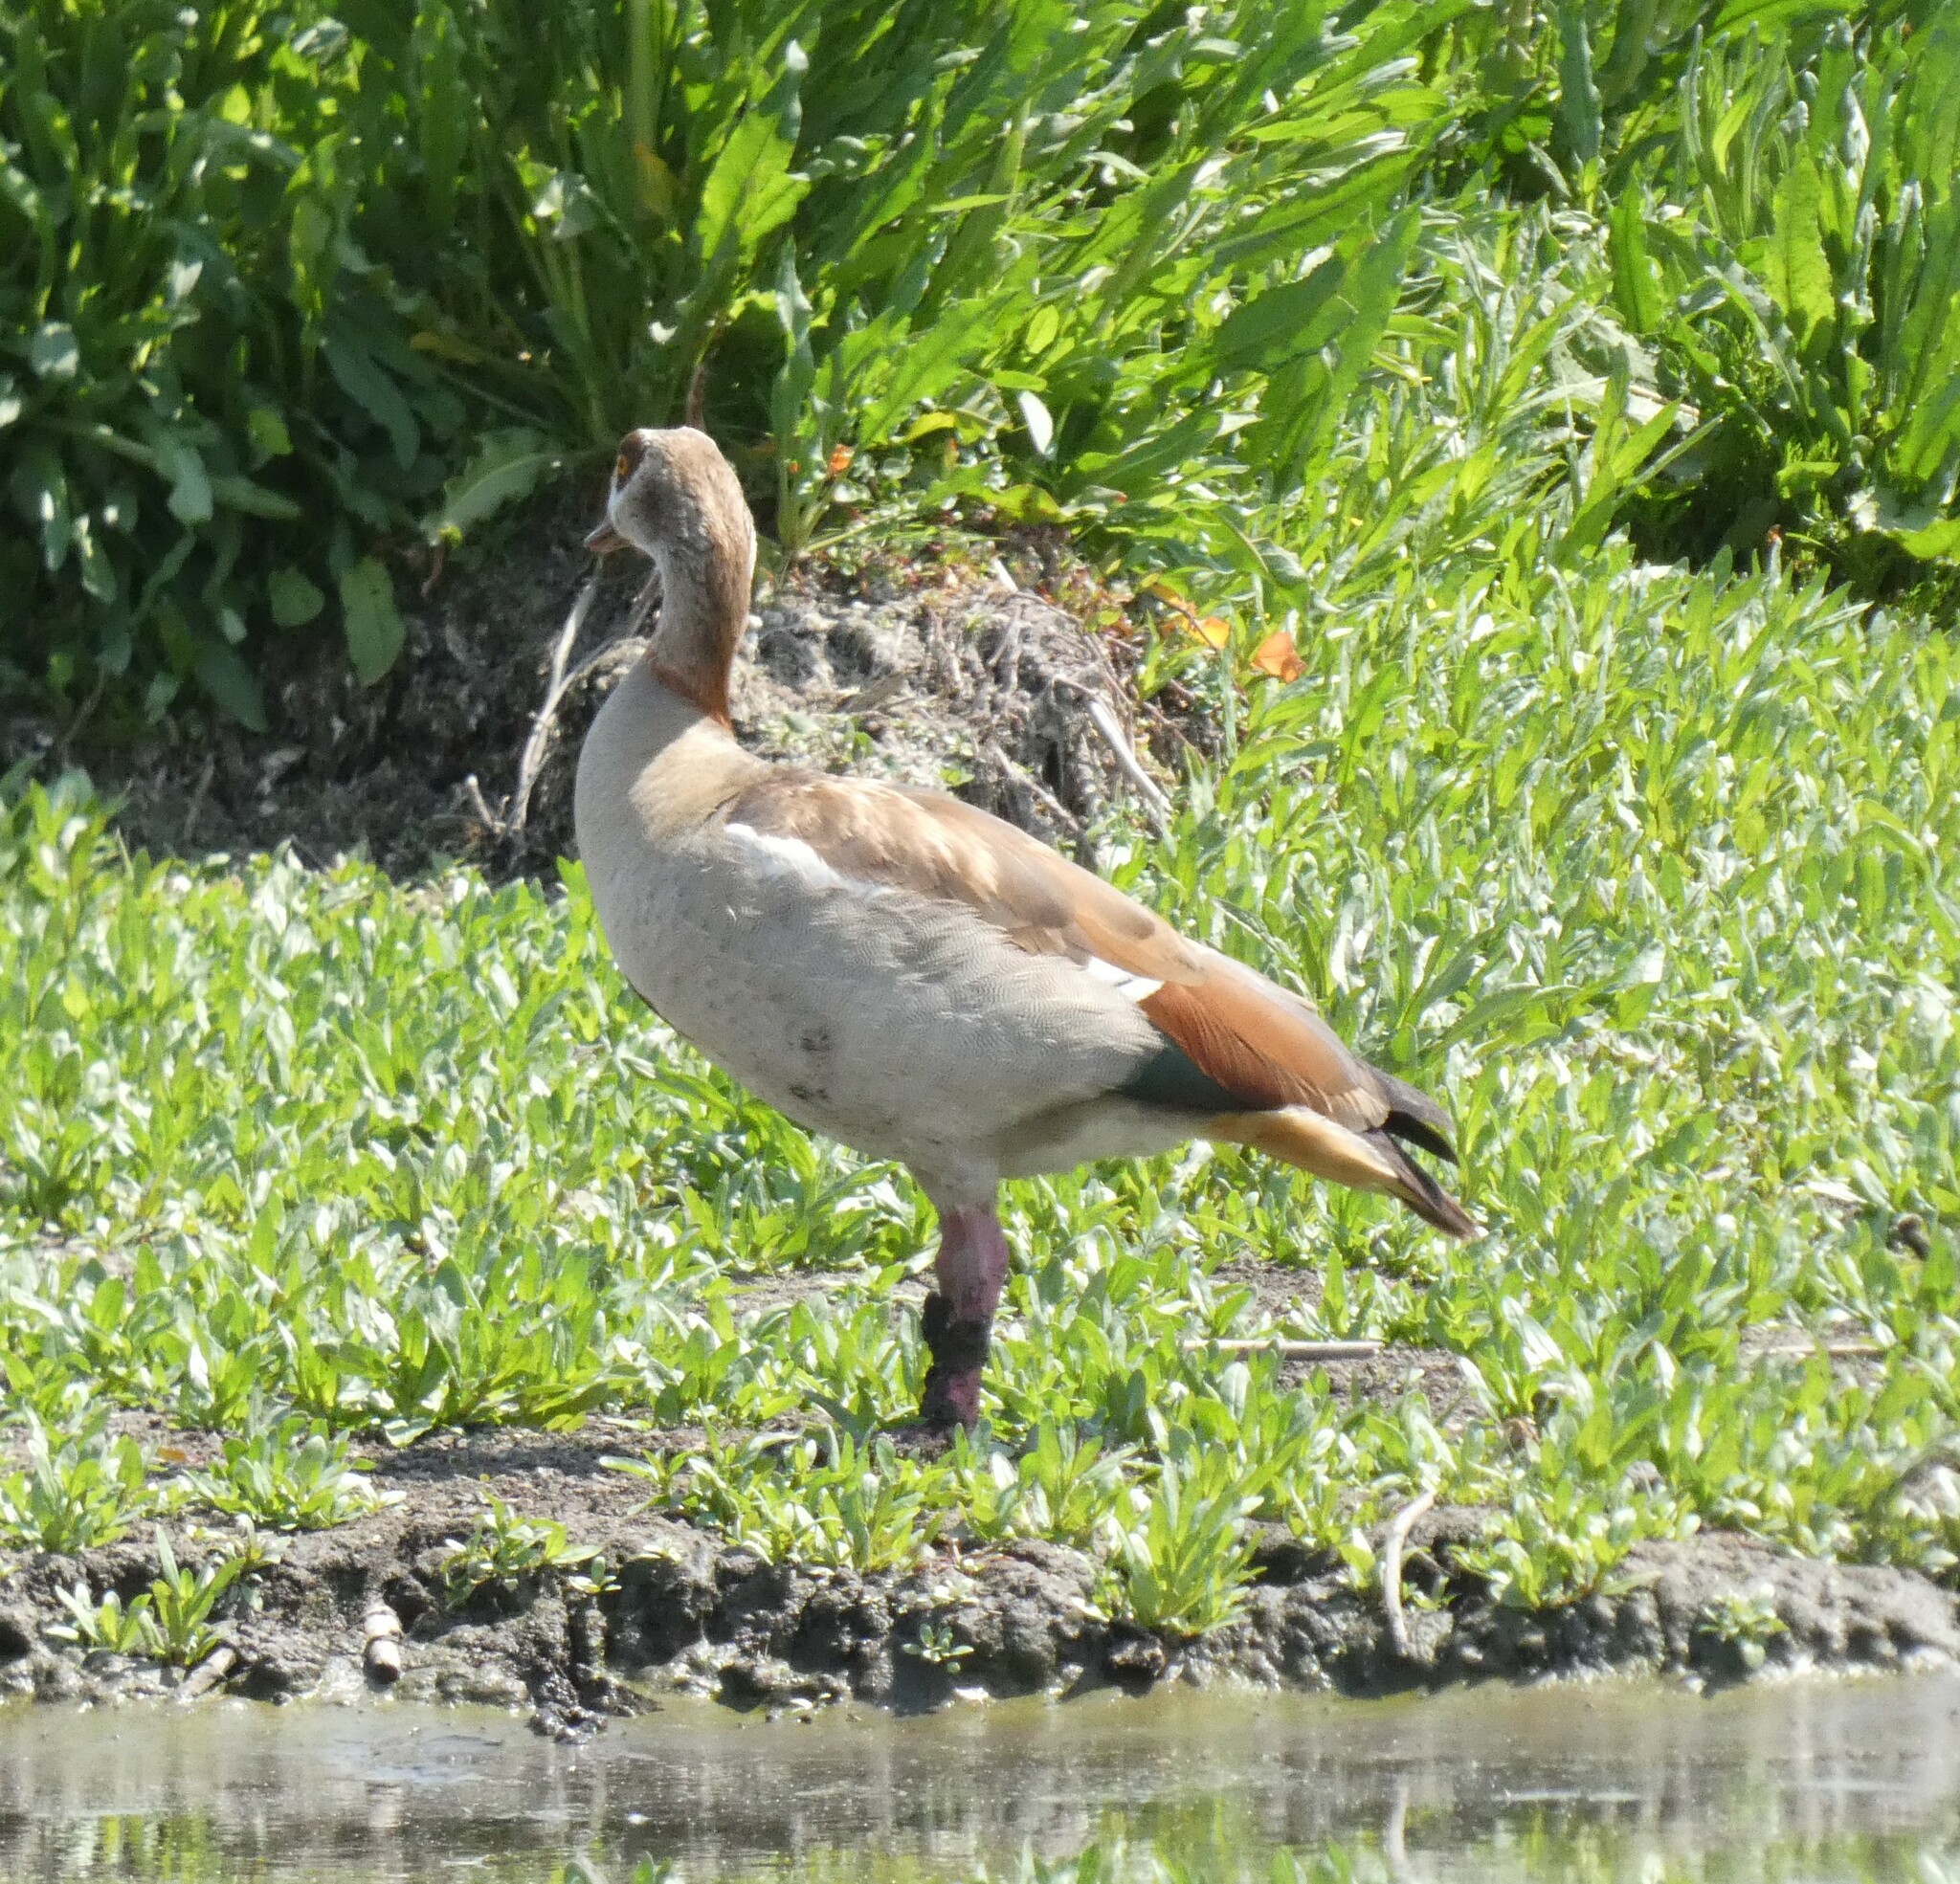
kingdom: Animalia
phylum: Chordata
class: Aves
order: Anseriformes
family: Anatidae
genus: Alopochen
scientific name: Alopochen aegyptiaca
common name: Egyptian goose
